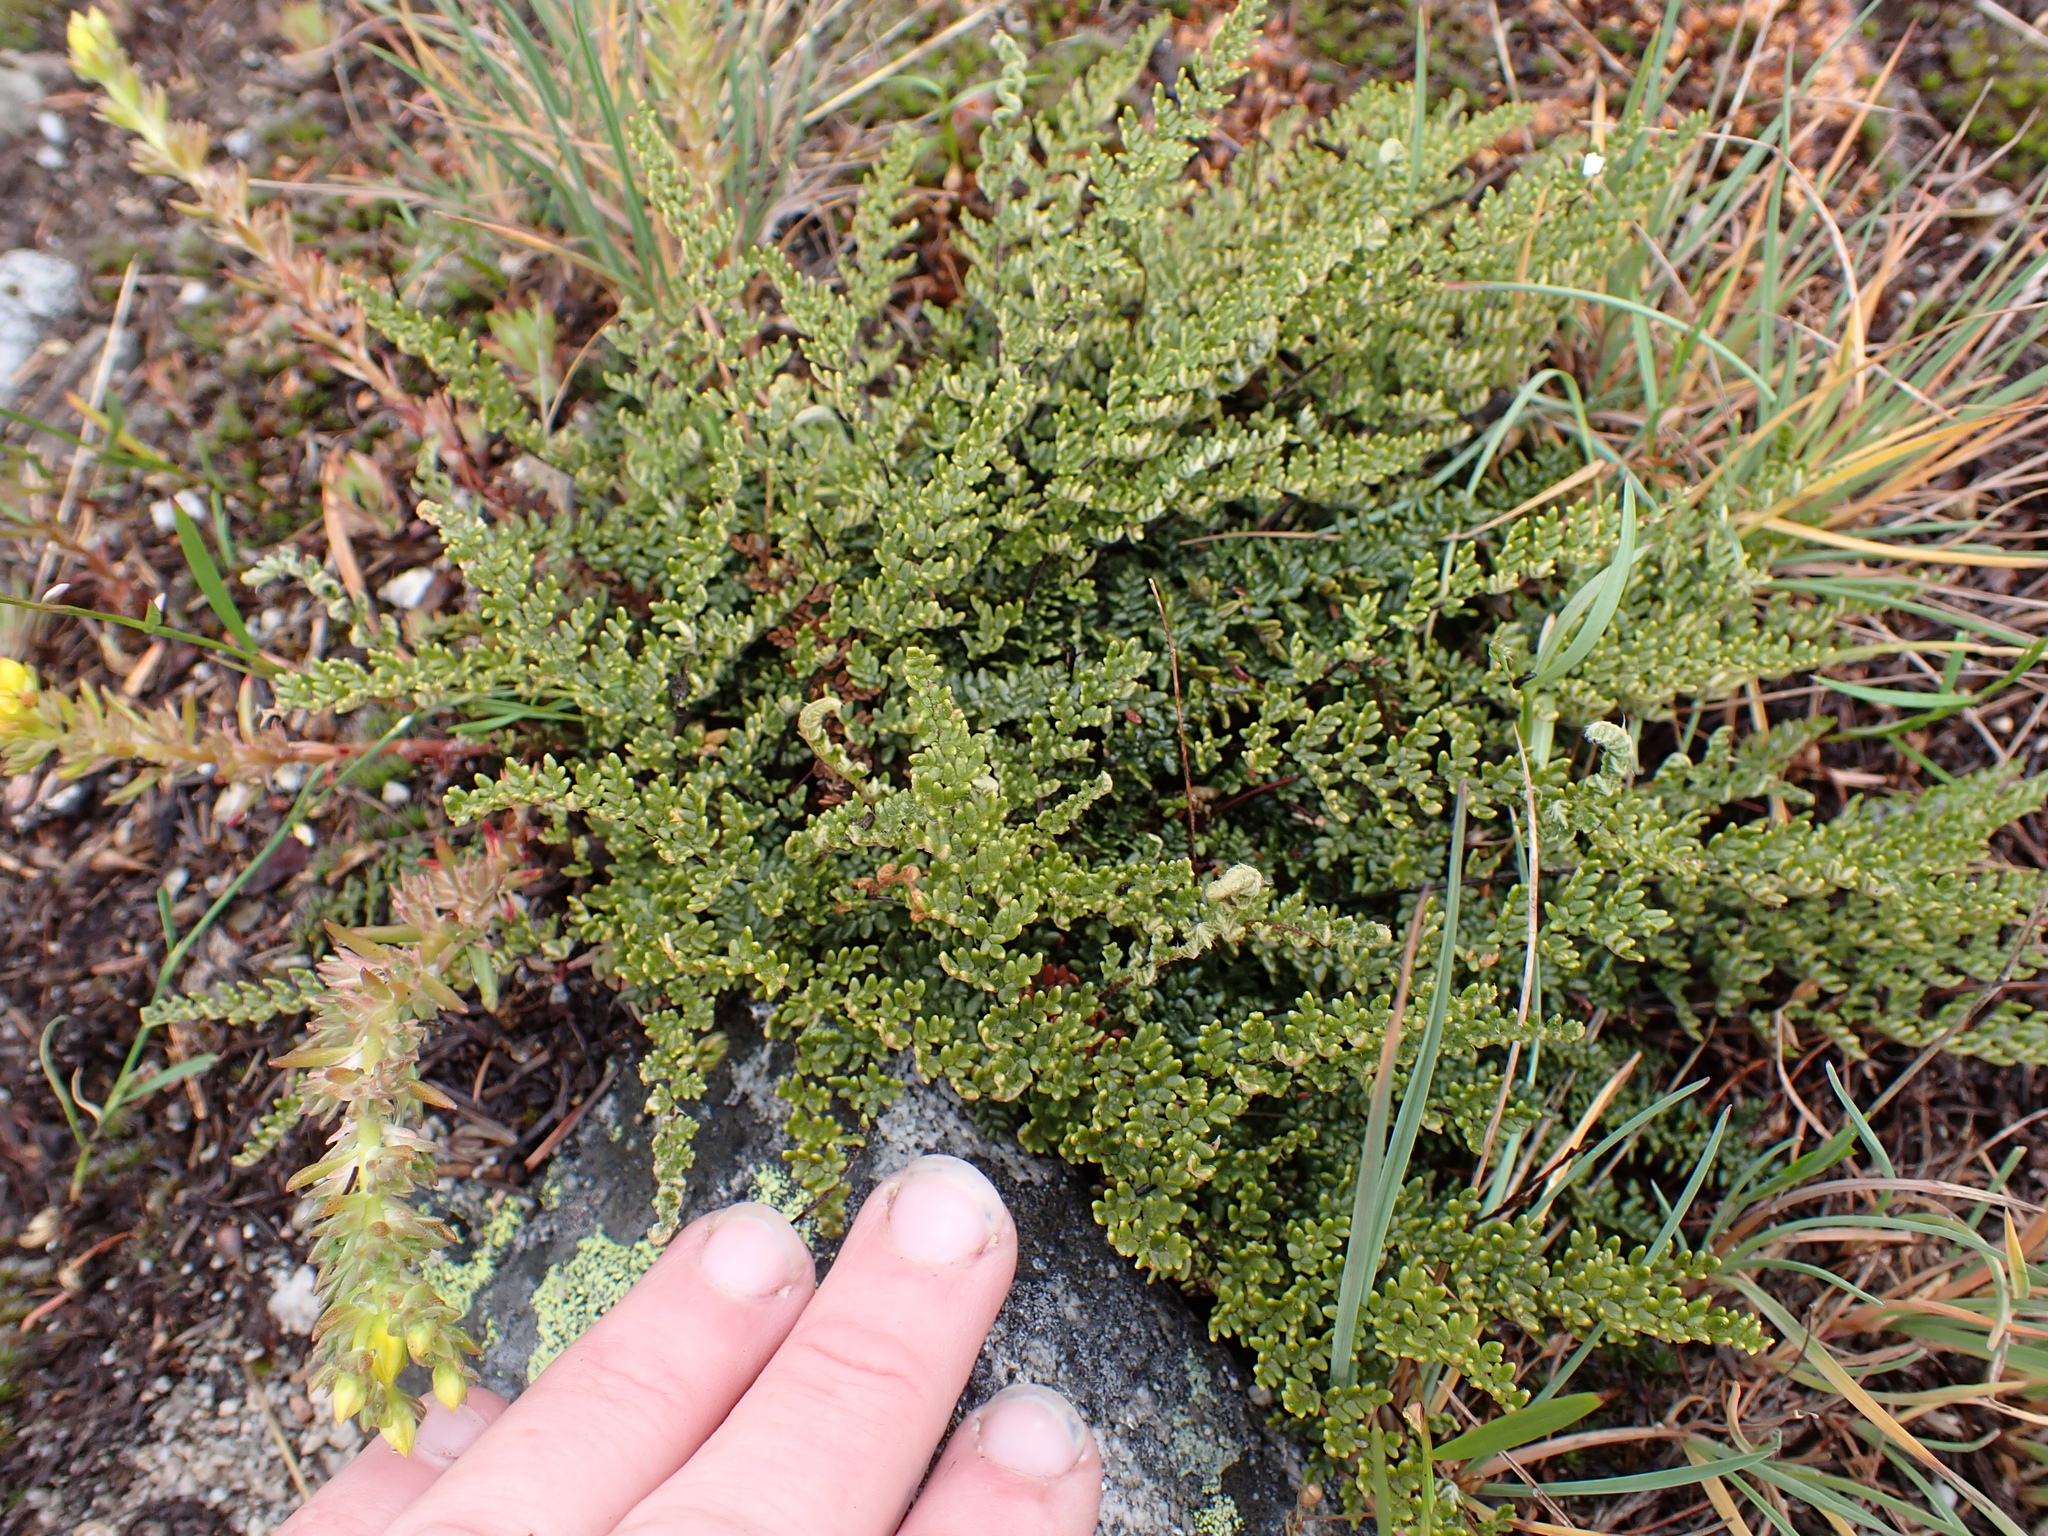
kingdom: Plantae
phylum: Tracheophyta
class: Polypodiopsida
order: Polypodiales
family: Pteridaceae
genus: Myriopteris
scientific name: Myriopteris gracillima
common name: Lace fern
